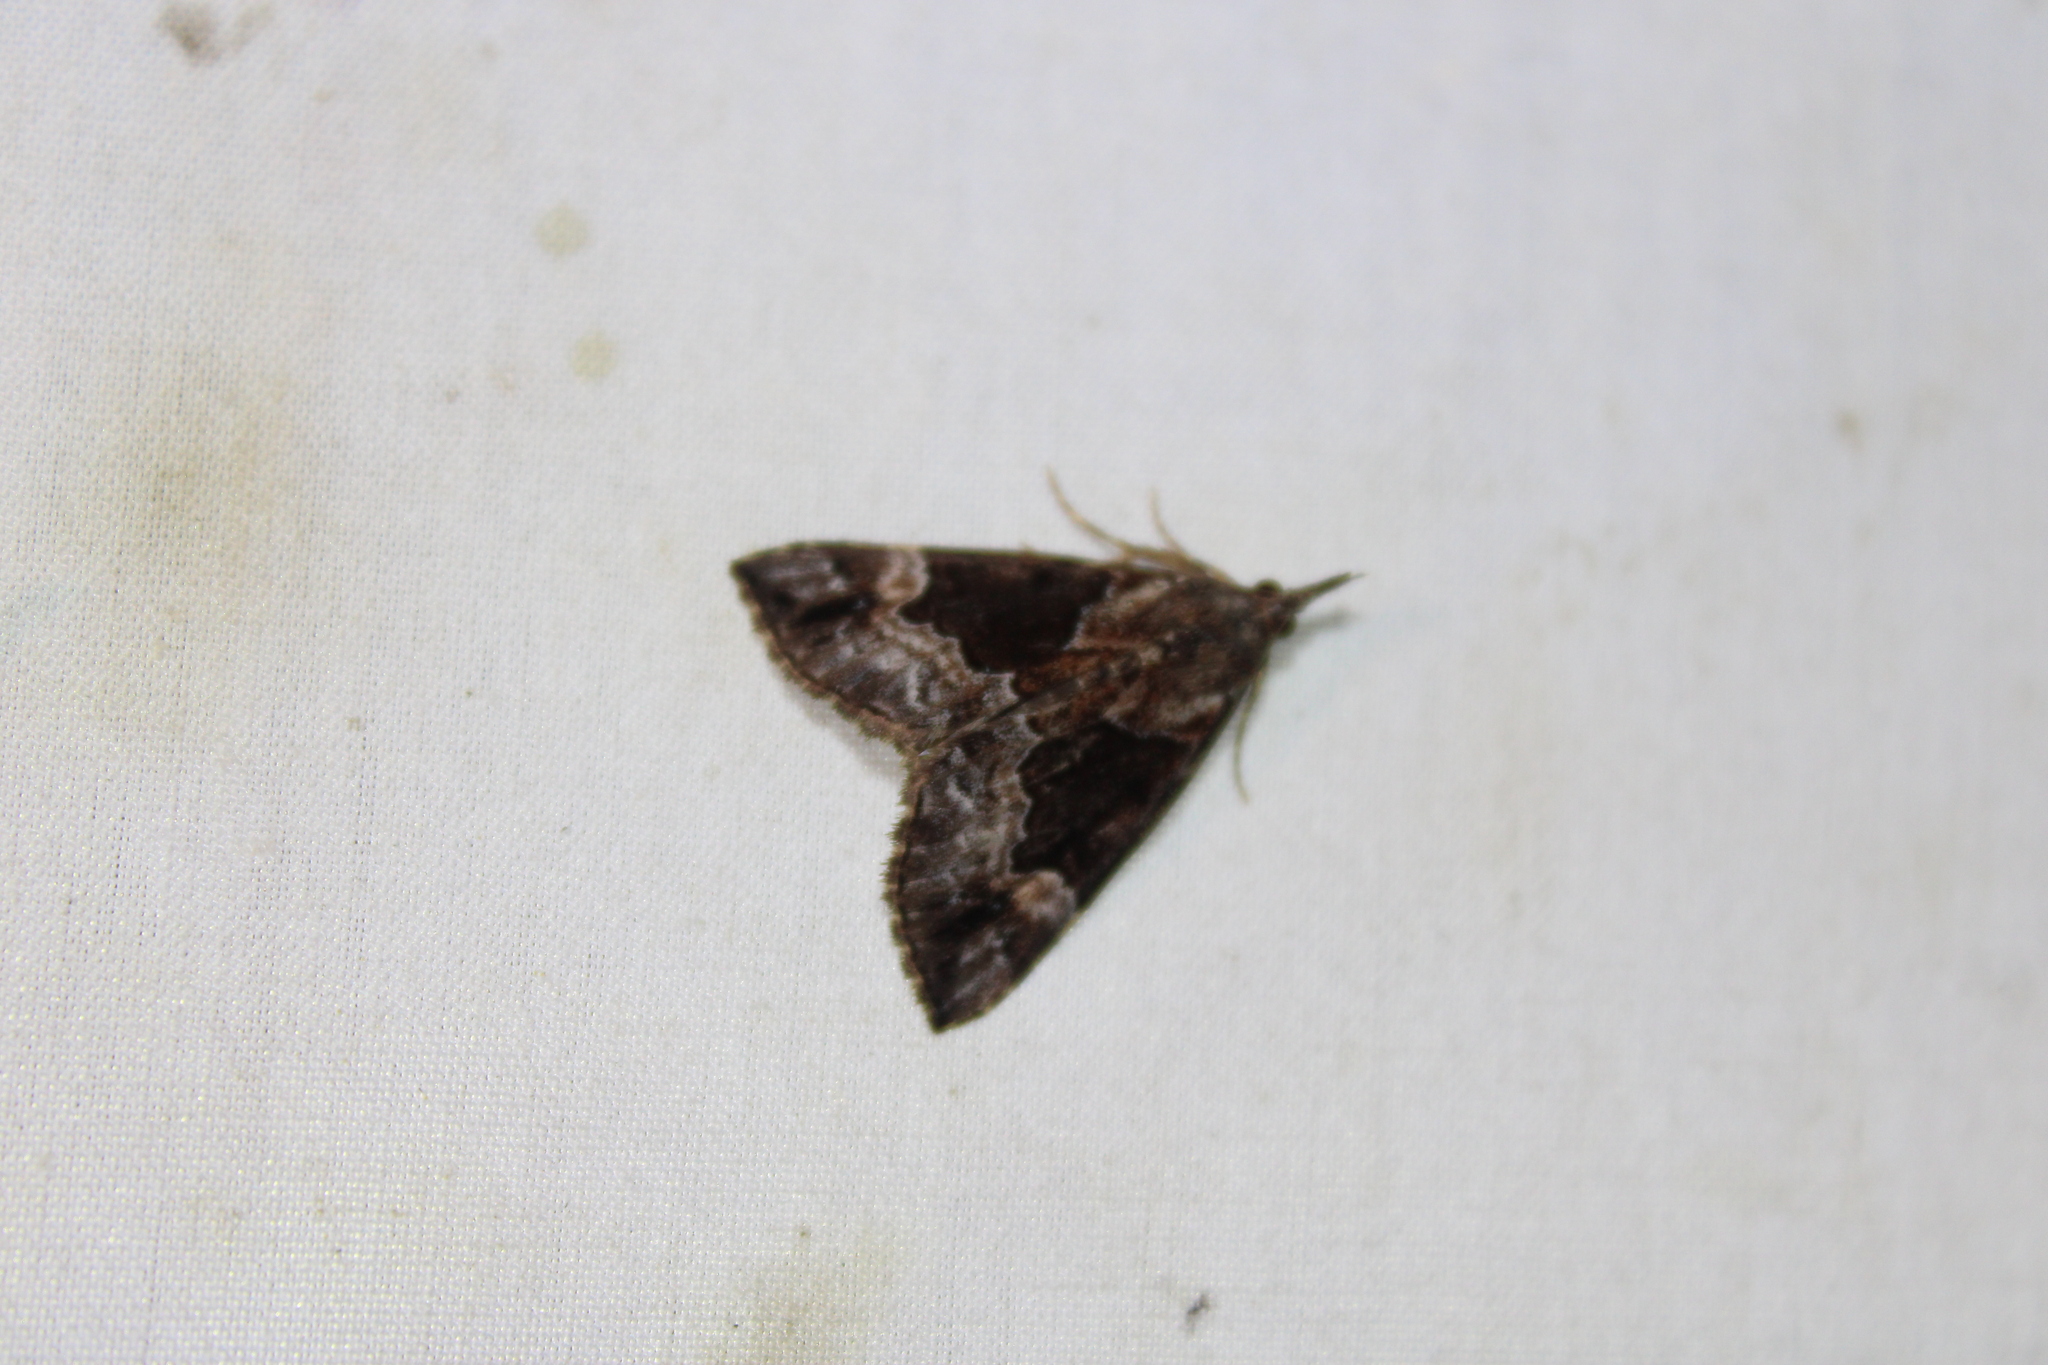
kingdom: Animalia
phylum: Arthropoda
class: Insecta
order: Lepidoptera
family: Erebidae
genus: Hypena
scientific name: Hypena palparia
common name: Mottled bomolocha moth
